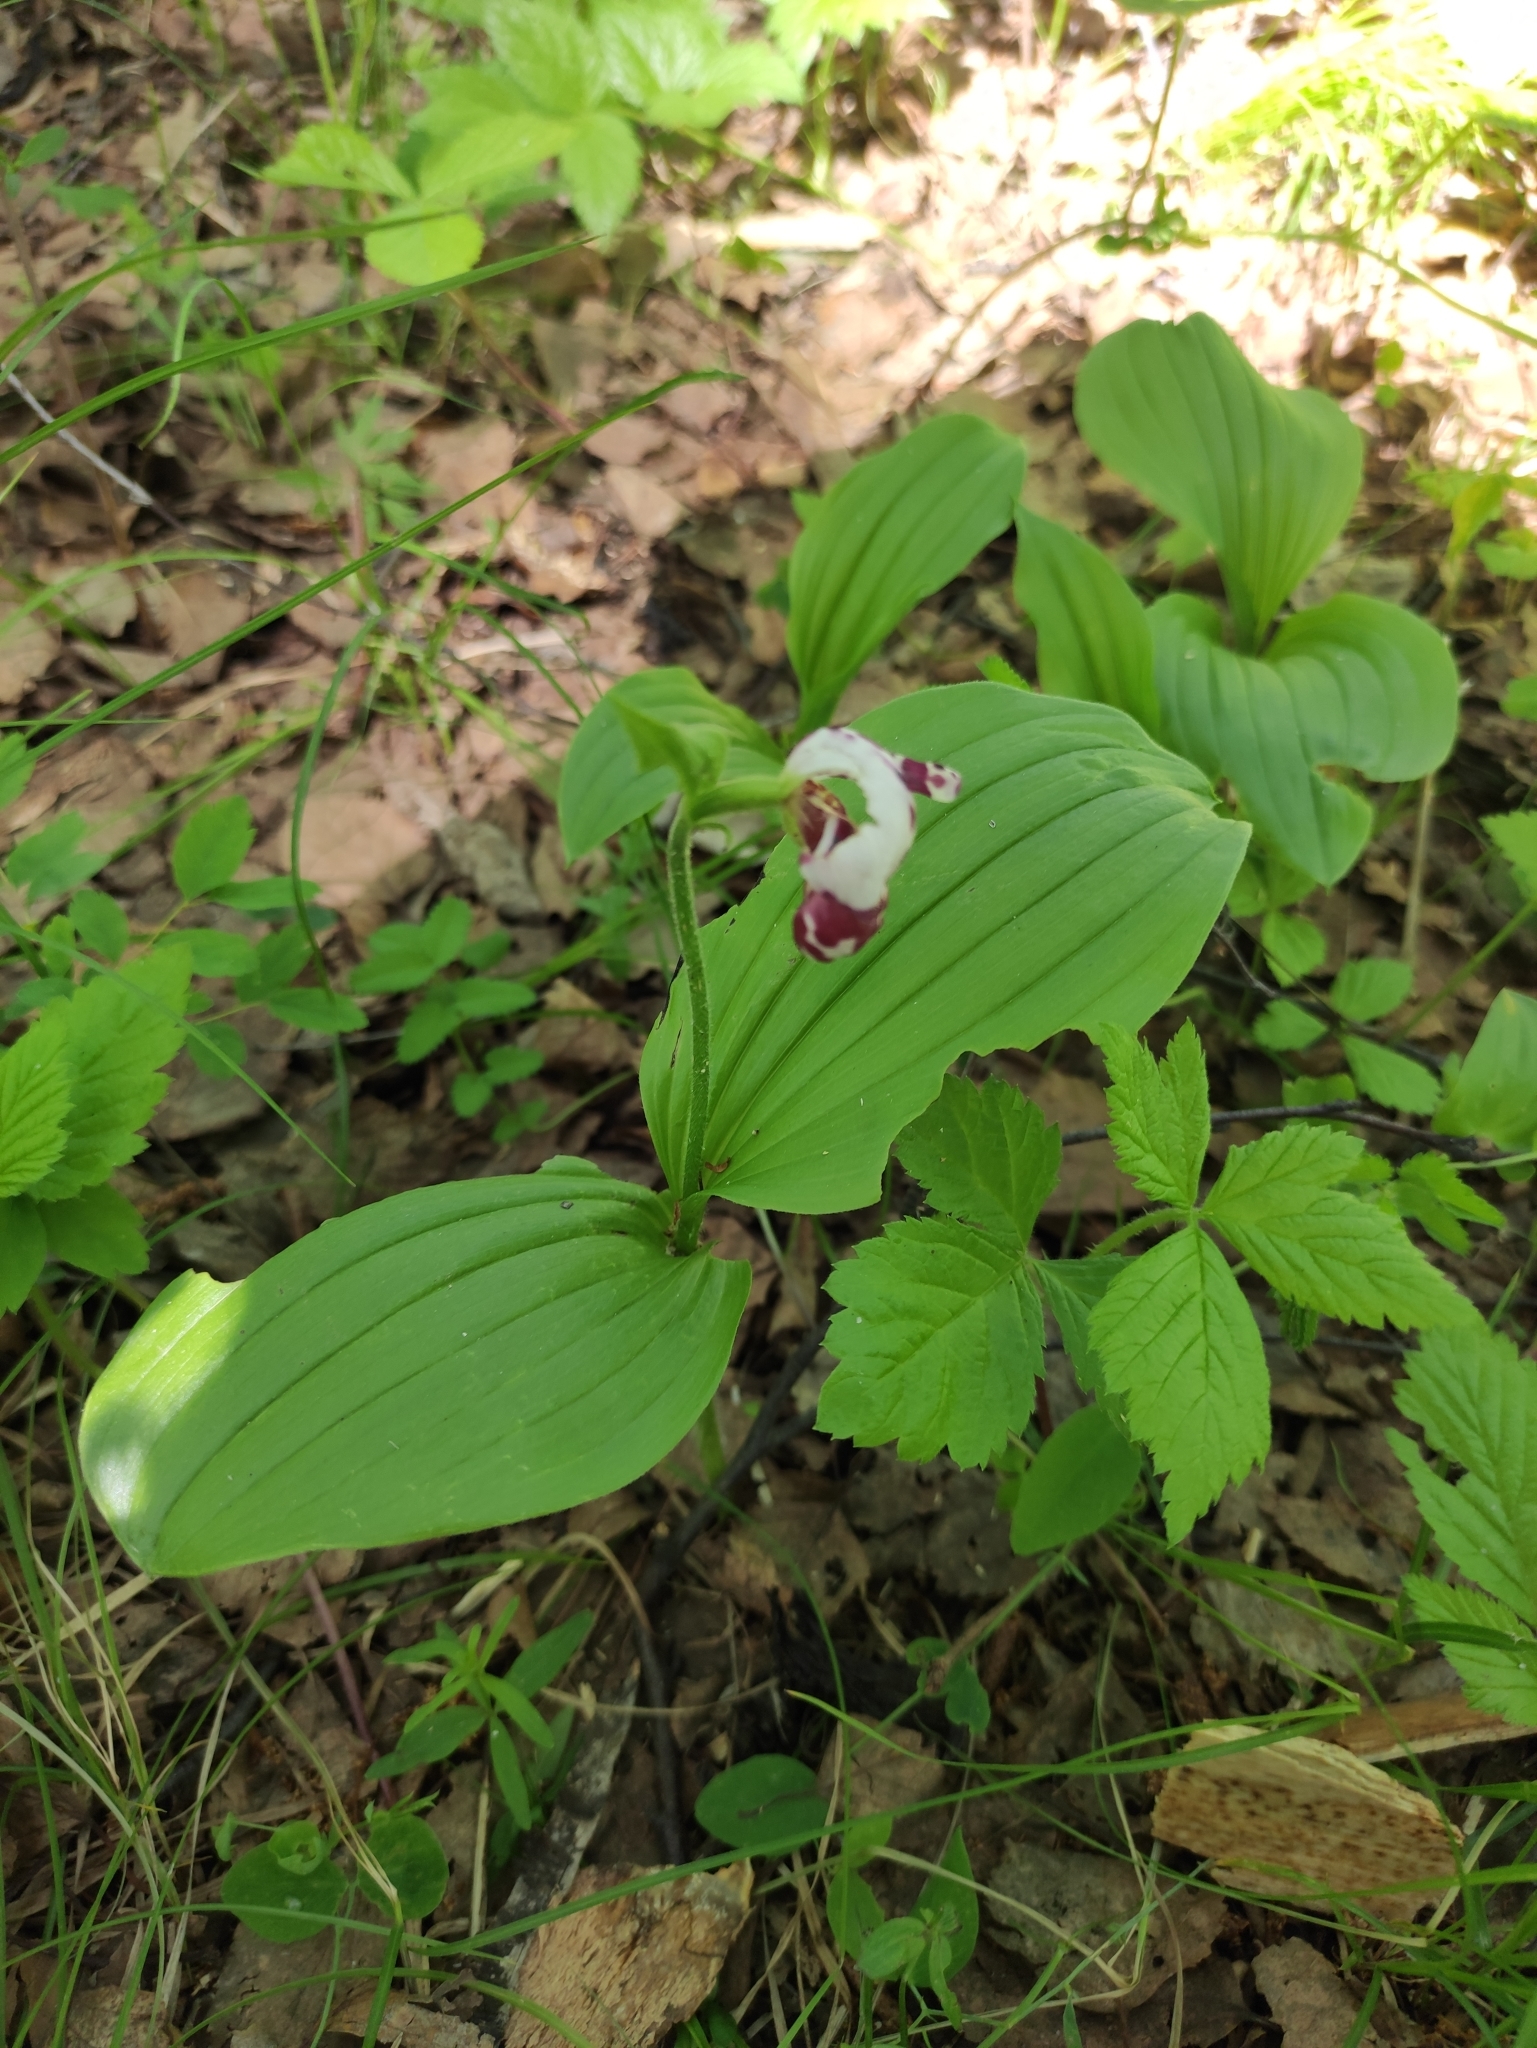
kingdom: Plantae
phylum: Tracheophyta
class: Liliopsida
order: Asparagales
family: Orchidaceae
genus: Cypripedium
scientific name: Cypripedium guttatum
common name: Pink lady slipper
